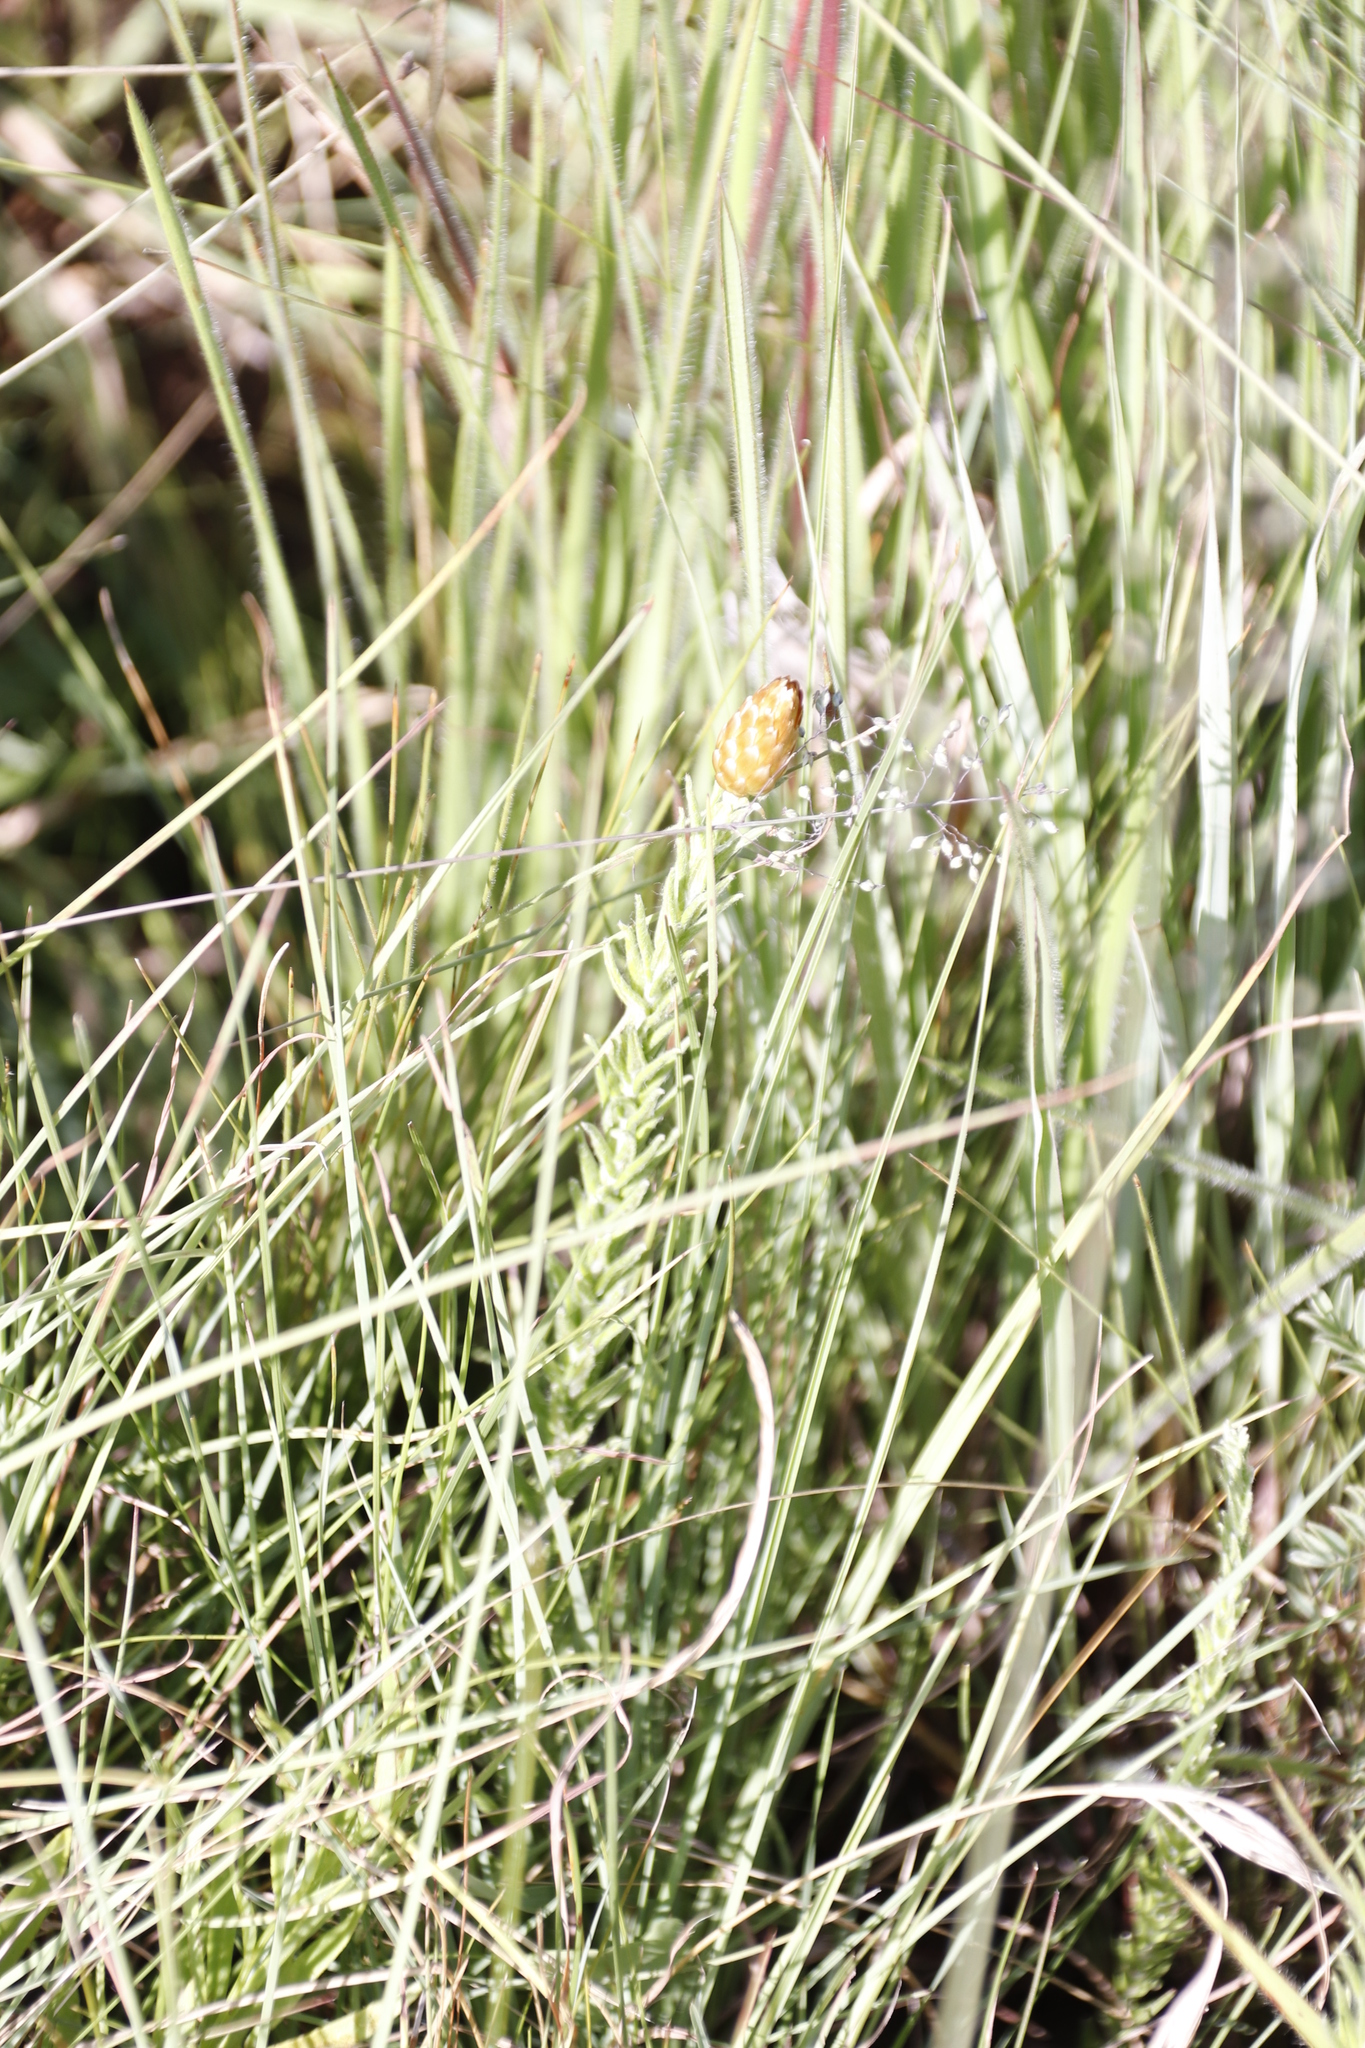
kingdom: Plantae
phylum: Tracheophyta
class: Magnoliopsida
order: Asterales
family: Asteraceae
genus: Helichrysum
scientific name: Helichrysum herbaceum
